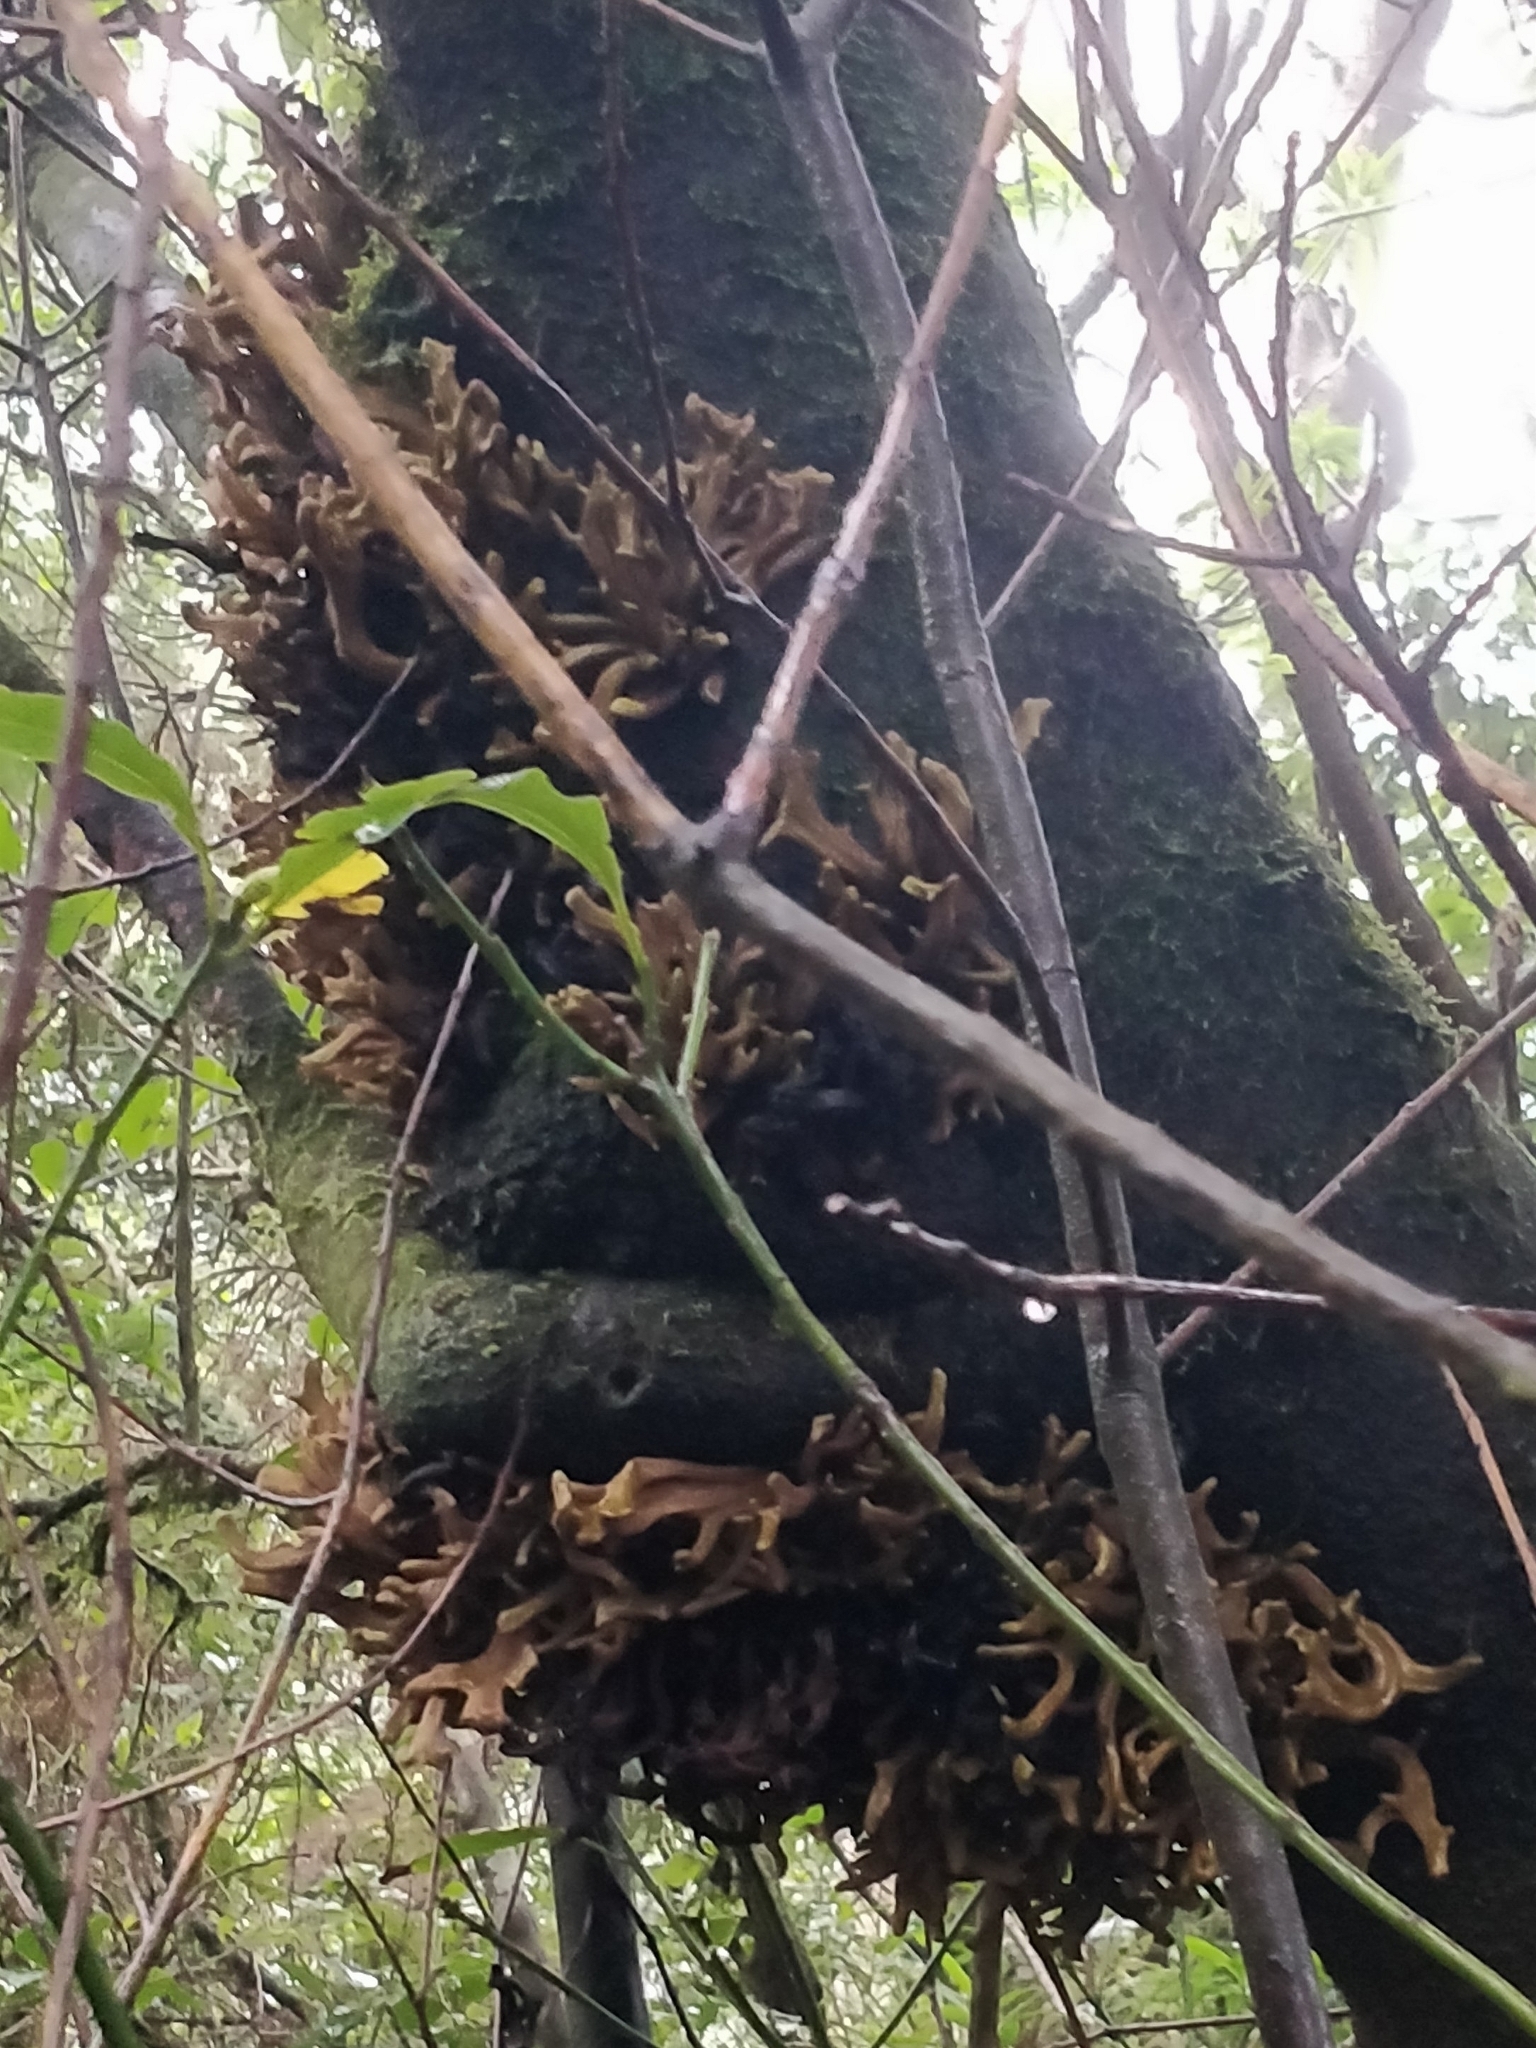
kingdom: Fungi
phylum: Basidiomycota
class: Exobasidiomycetes
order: Exobasidiales
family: Laurobasidiaceae
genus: Laurobasidium
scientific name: Laurobasidium lauri
